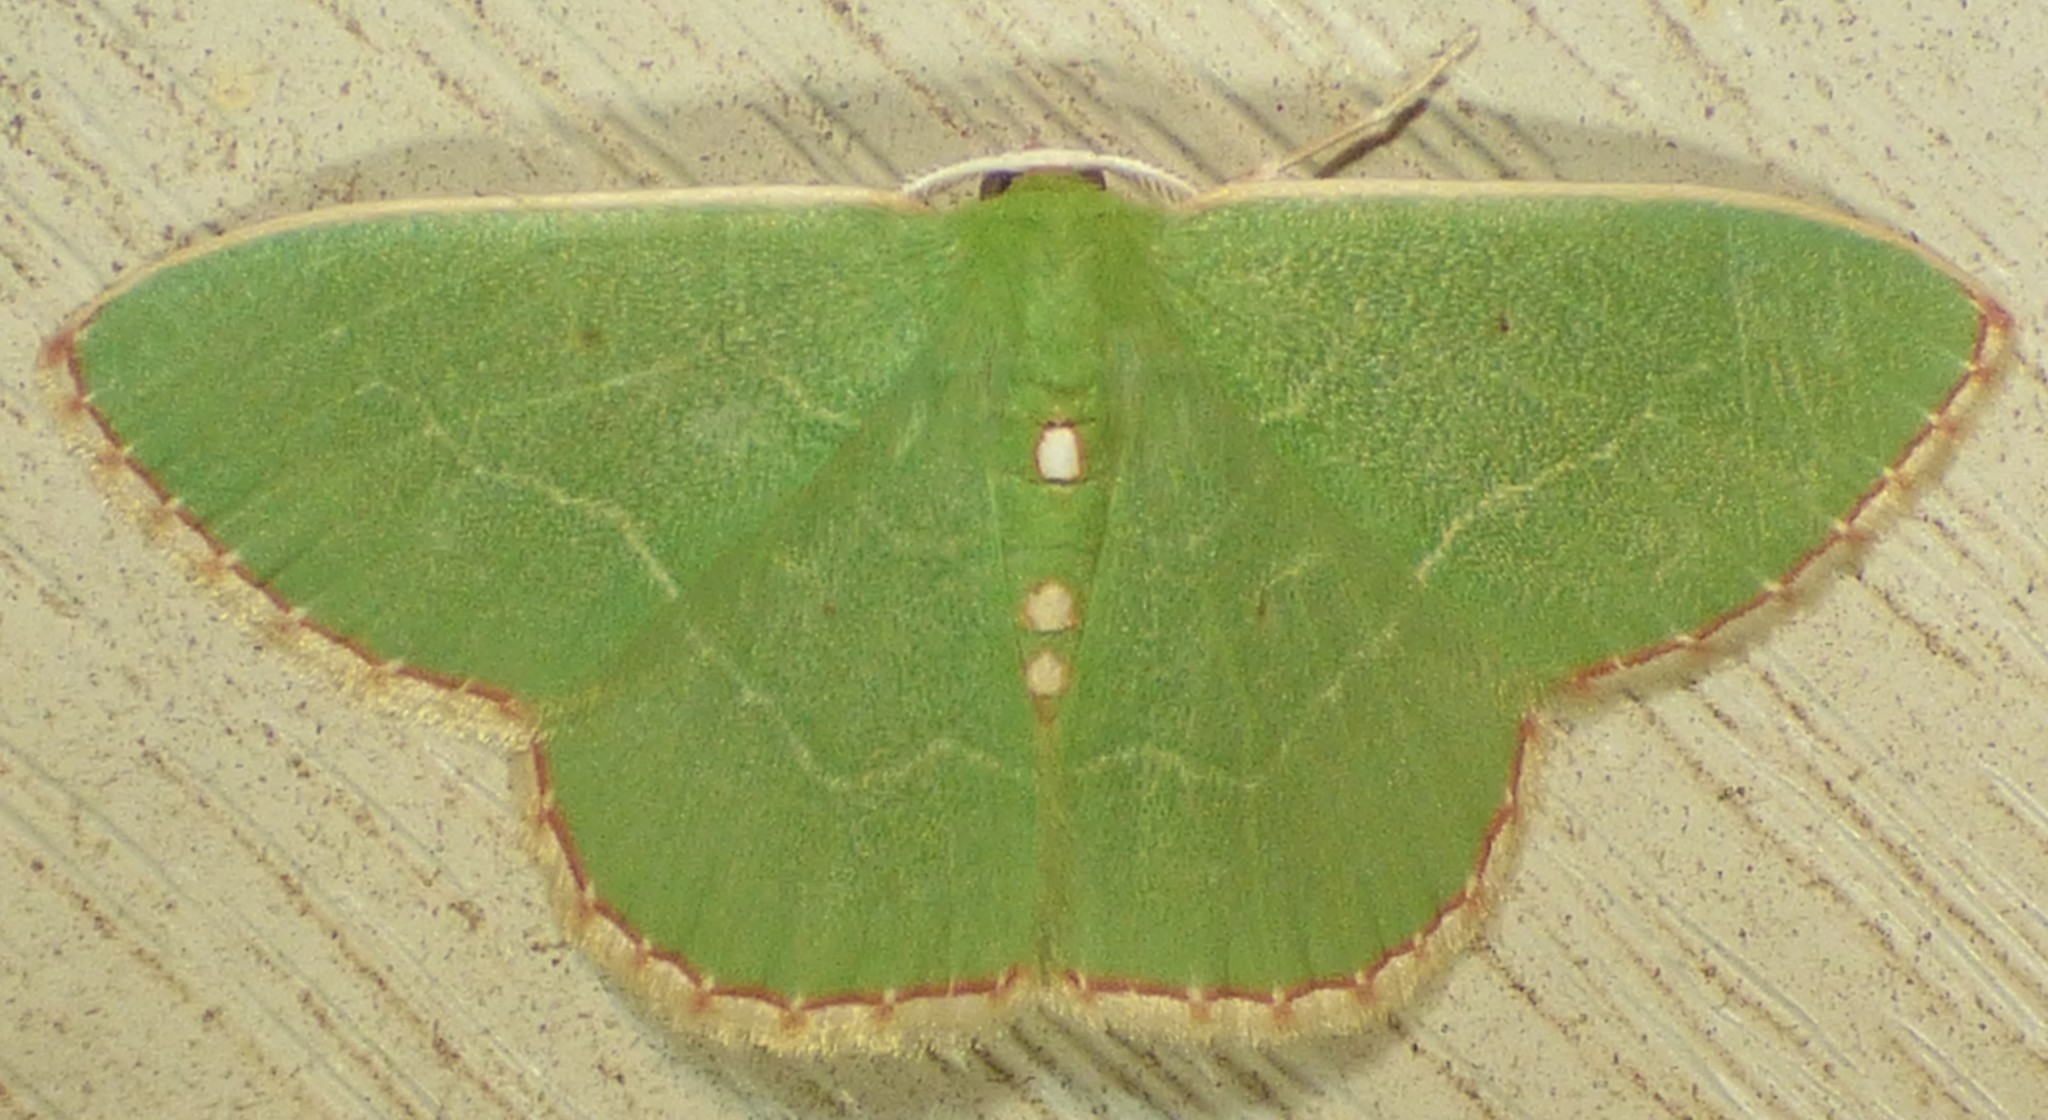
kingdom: Animalia
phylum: Arthropoda
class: Insecta
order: Lepidoptera
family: Geometridae
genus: Nemoria
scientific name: Nemoria lixaria
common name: Red-bordered emerald
